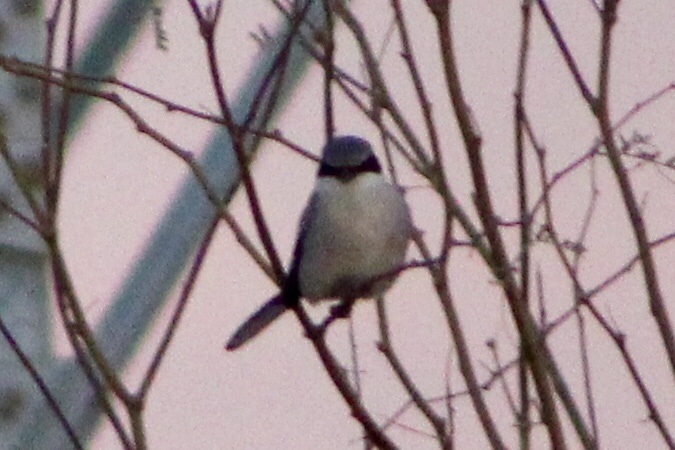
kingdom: Animalia
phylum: Chordata
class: Aves
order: Passeriformes
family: Laniidae
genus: Lanius
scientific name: Lanius ludovicianus
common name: Loggerhead shrike
